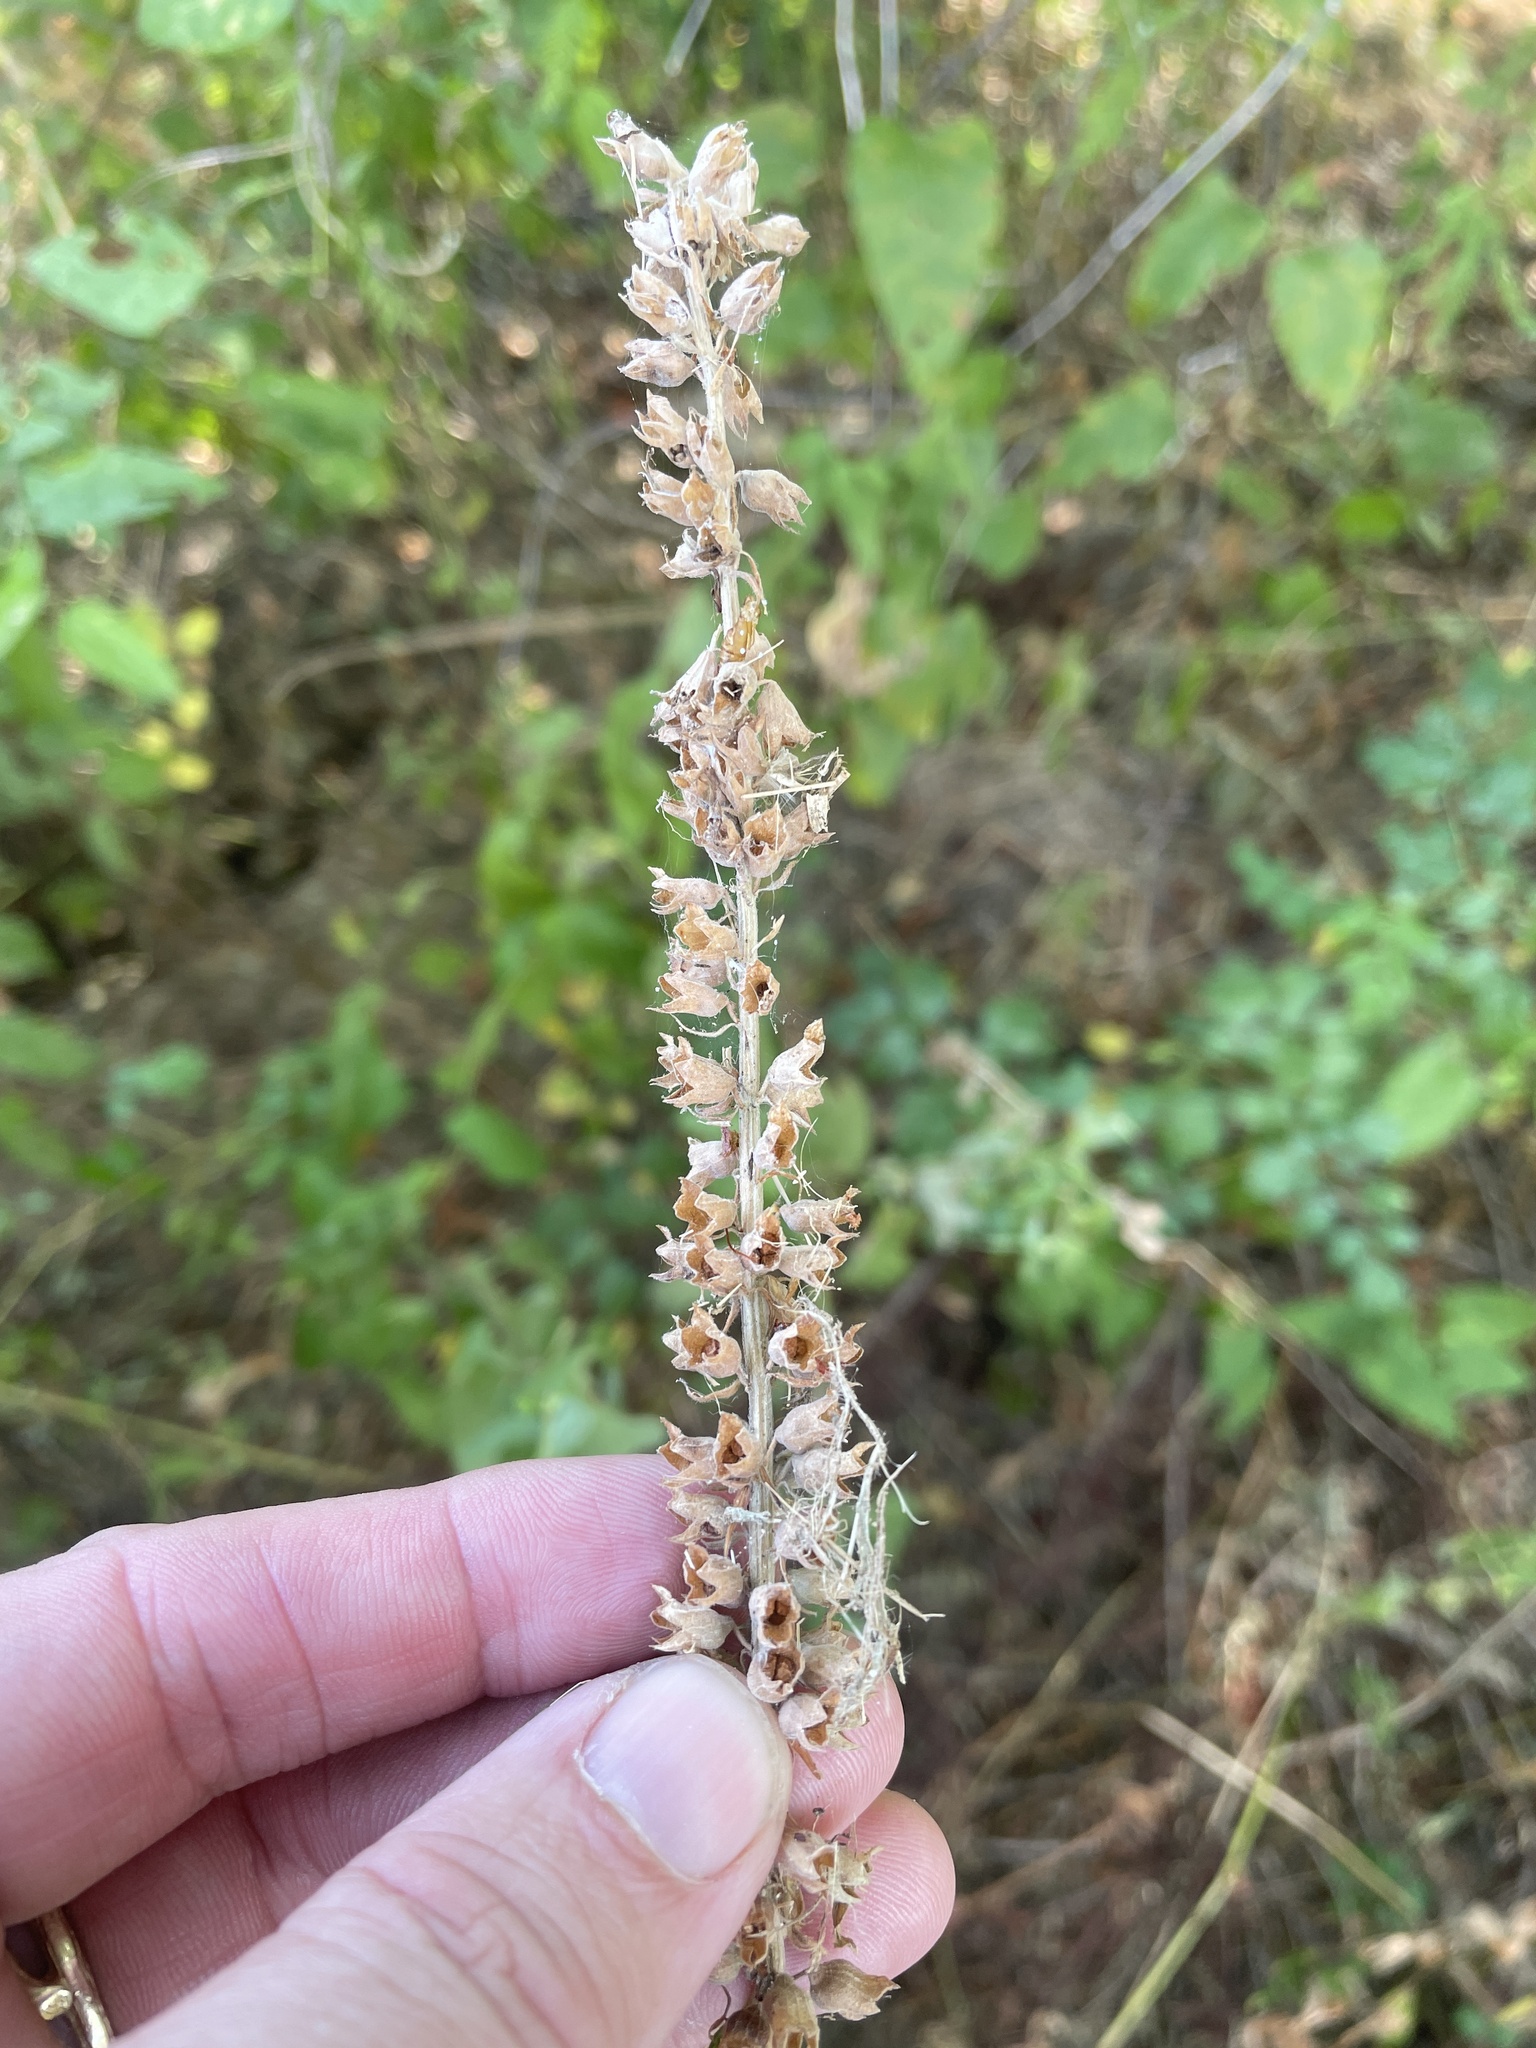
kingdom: Plantae
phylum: Tracheophyta
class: Magnoliopsida
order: Lamiales
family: Lamiaceae
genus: Teucrium
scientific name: Teucrium canadense
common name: American germander
